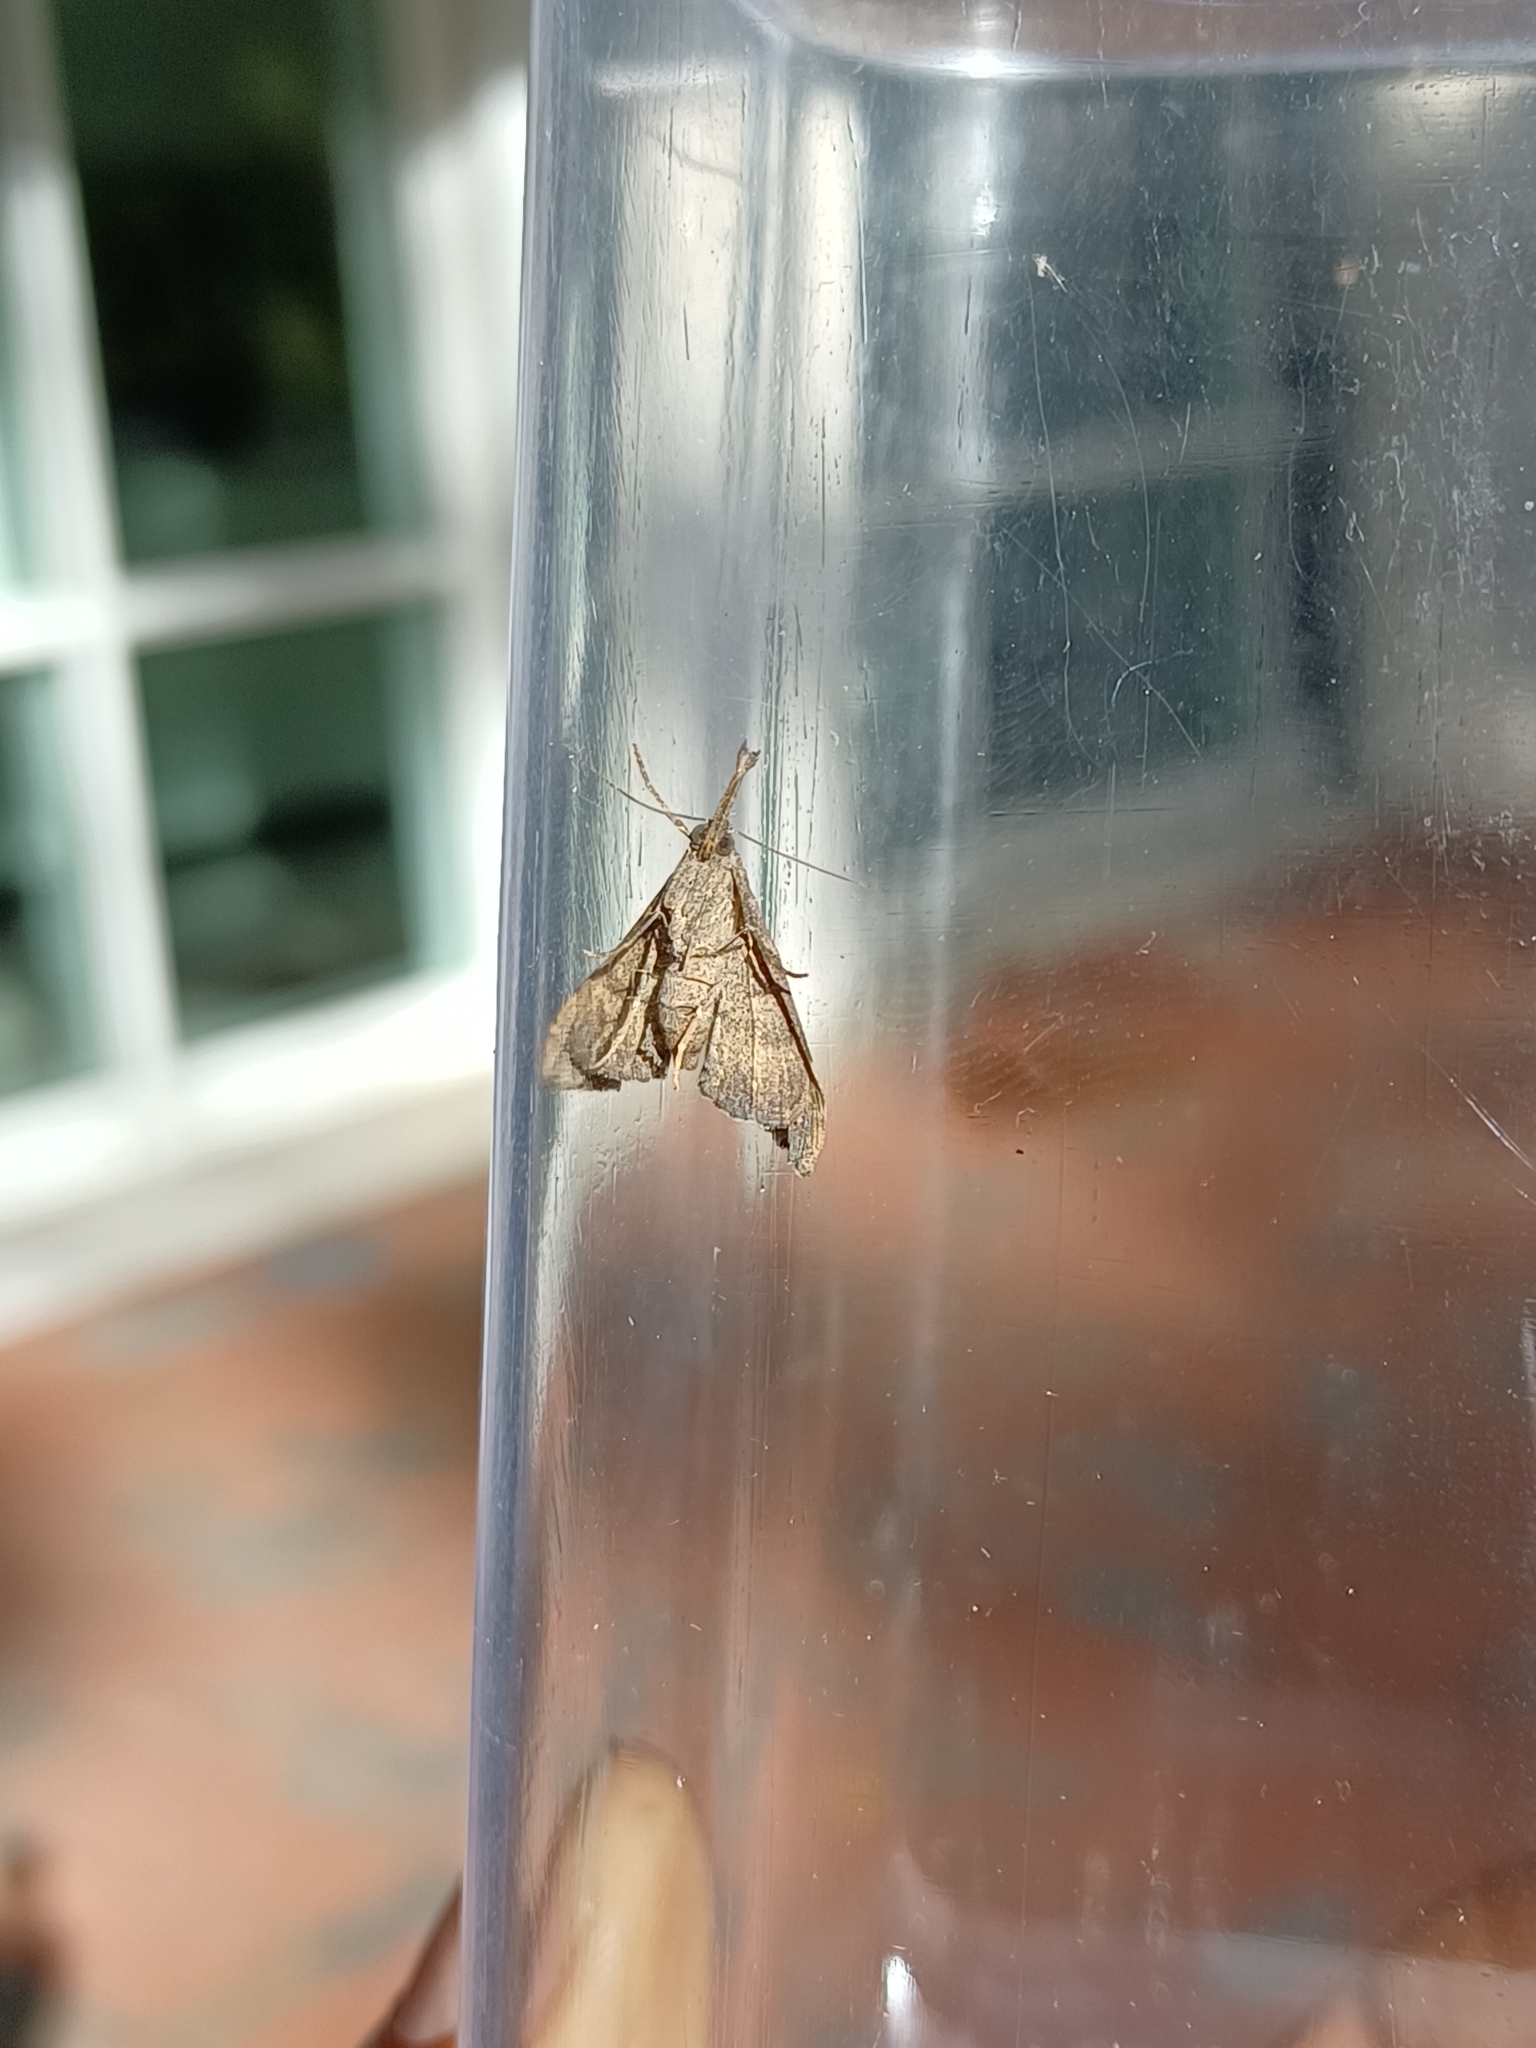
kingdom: Animalia
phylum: Arthropoda
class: Insecta
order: Lepidoptera
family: Erebidae
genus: Palthis
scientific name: Palthis asopialis
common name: Faint-spotted palthis moth
